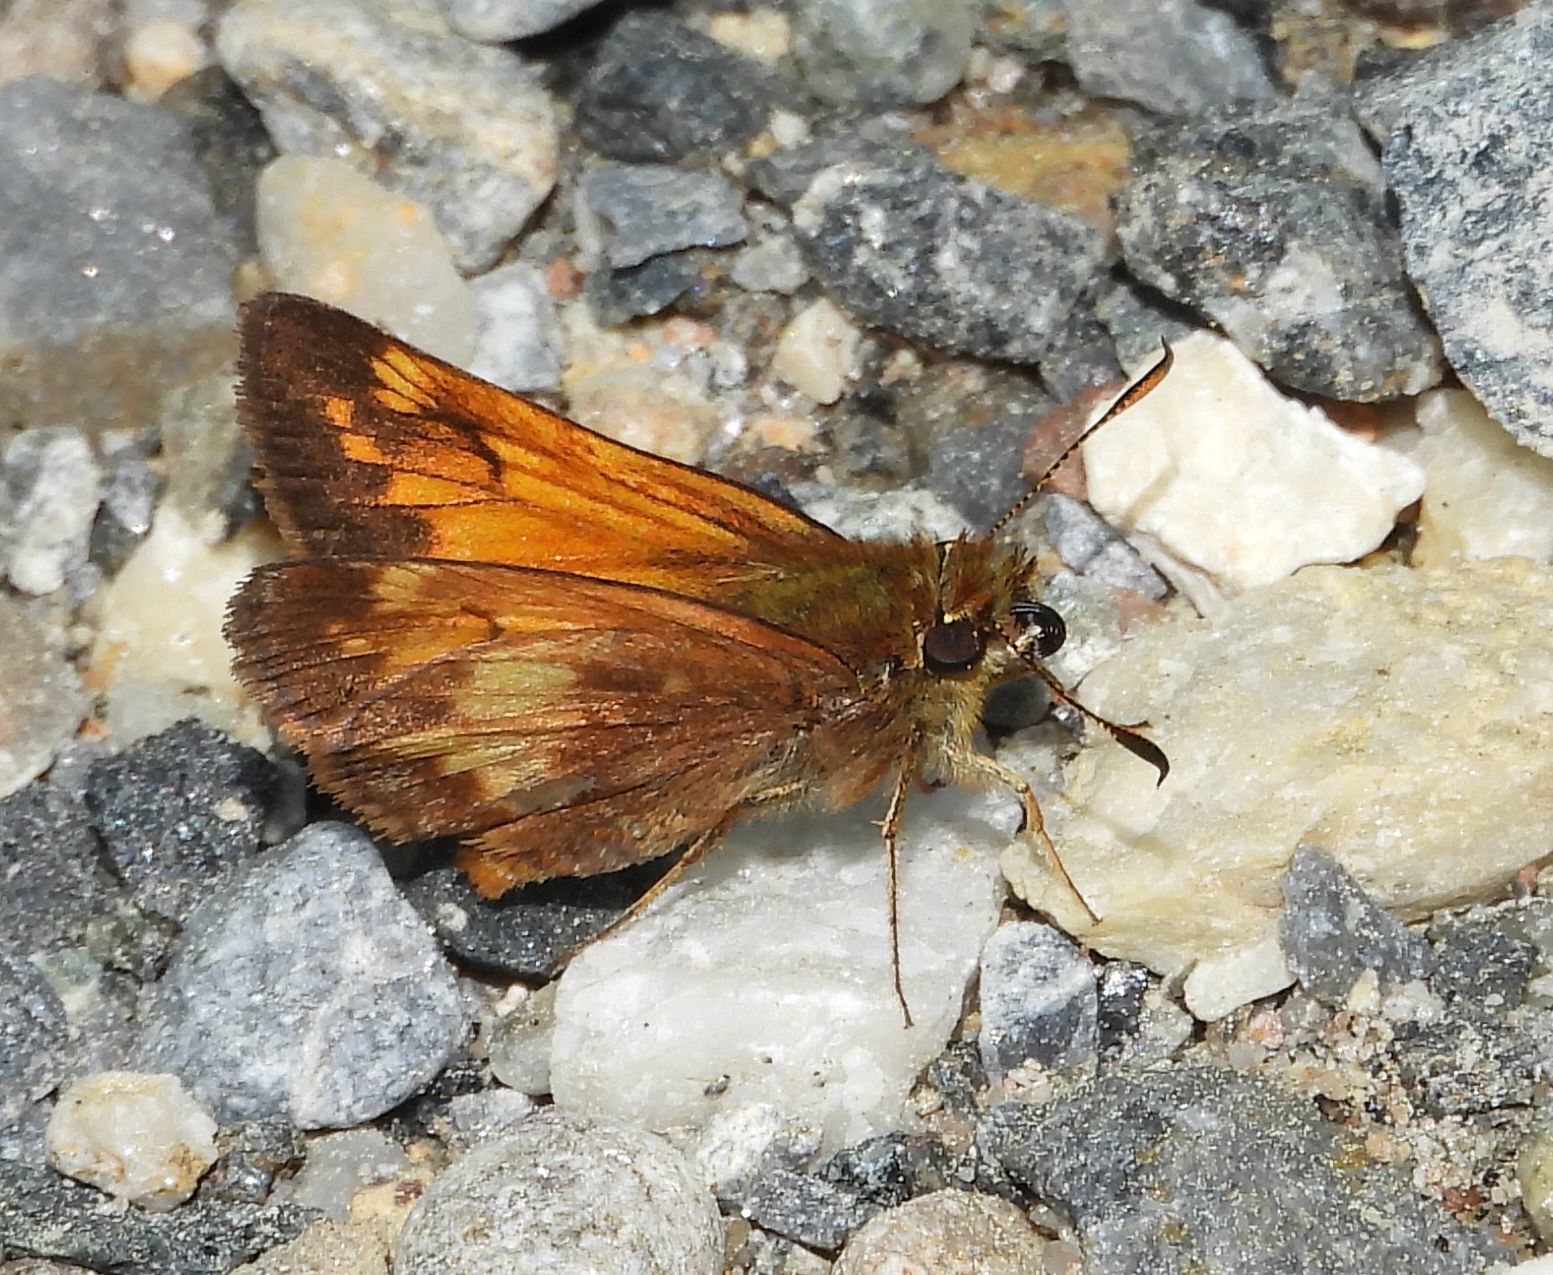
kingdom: Animalia
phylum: Arthropoda
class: Insecta
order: Lepidoptera
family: Hesperiidae
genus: Lon
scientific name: Lon hobomok
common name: Hobomok skipper
